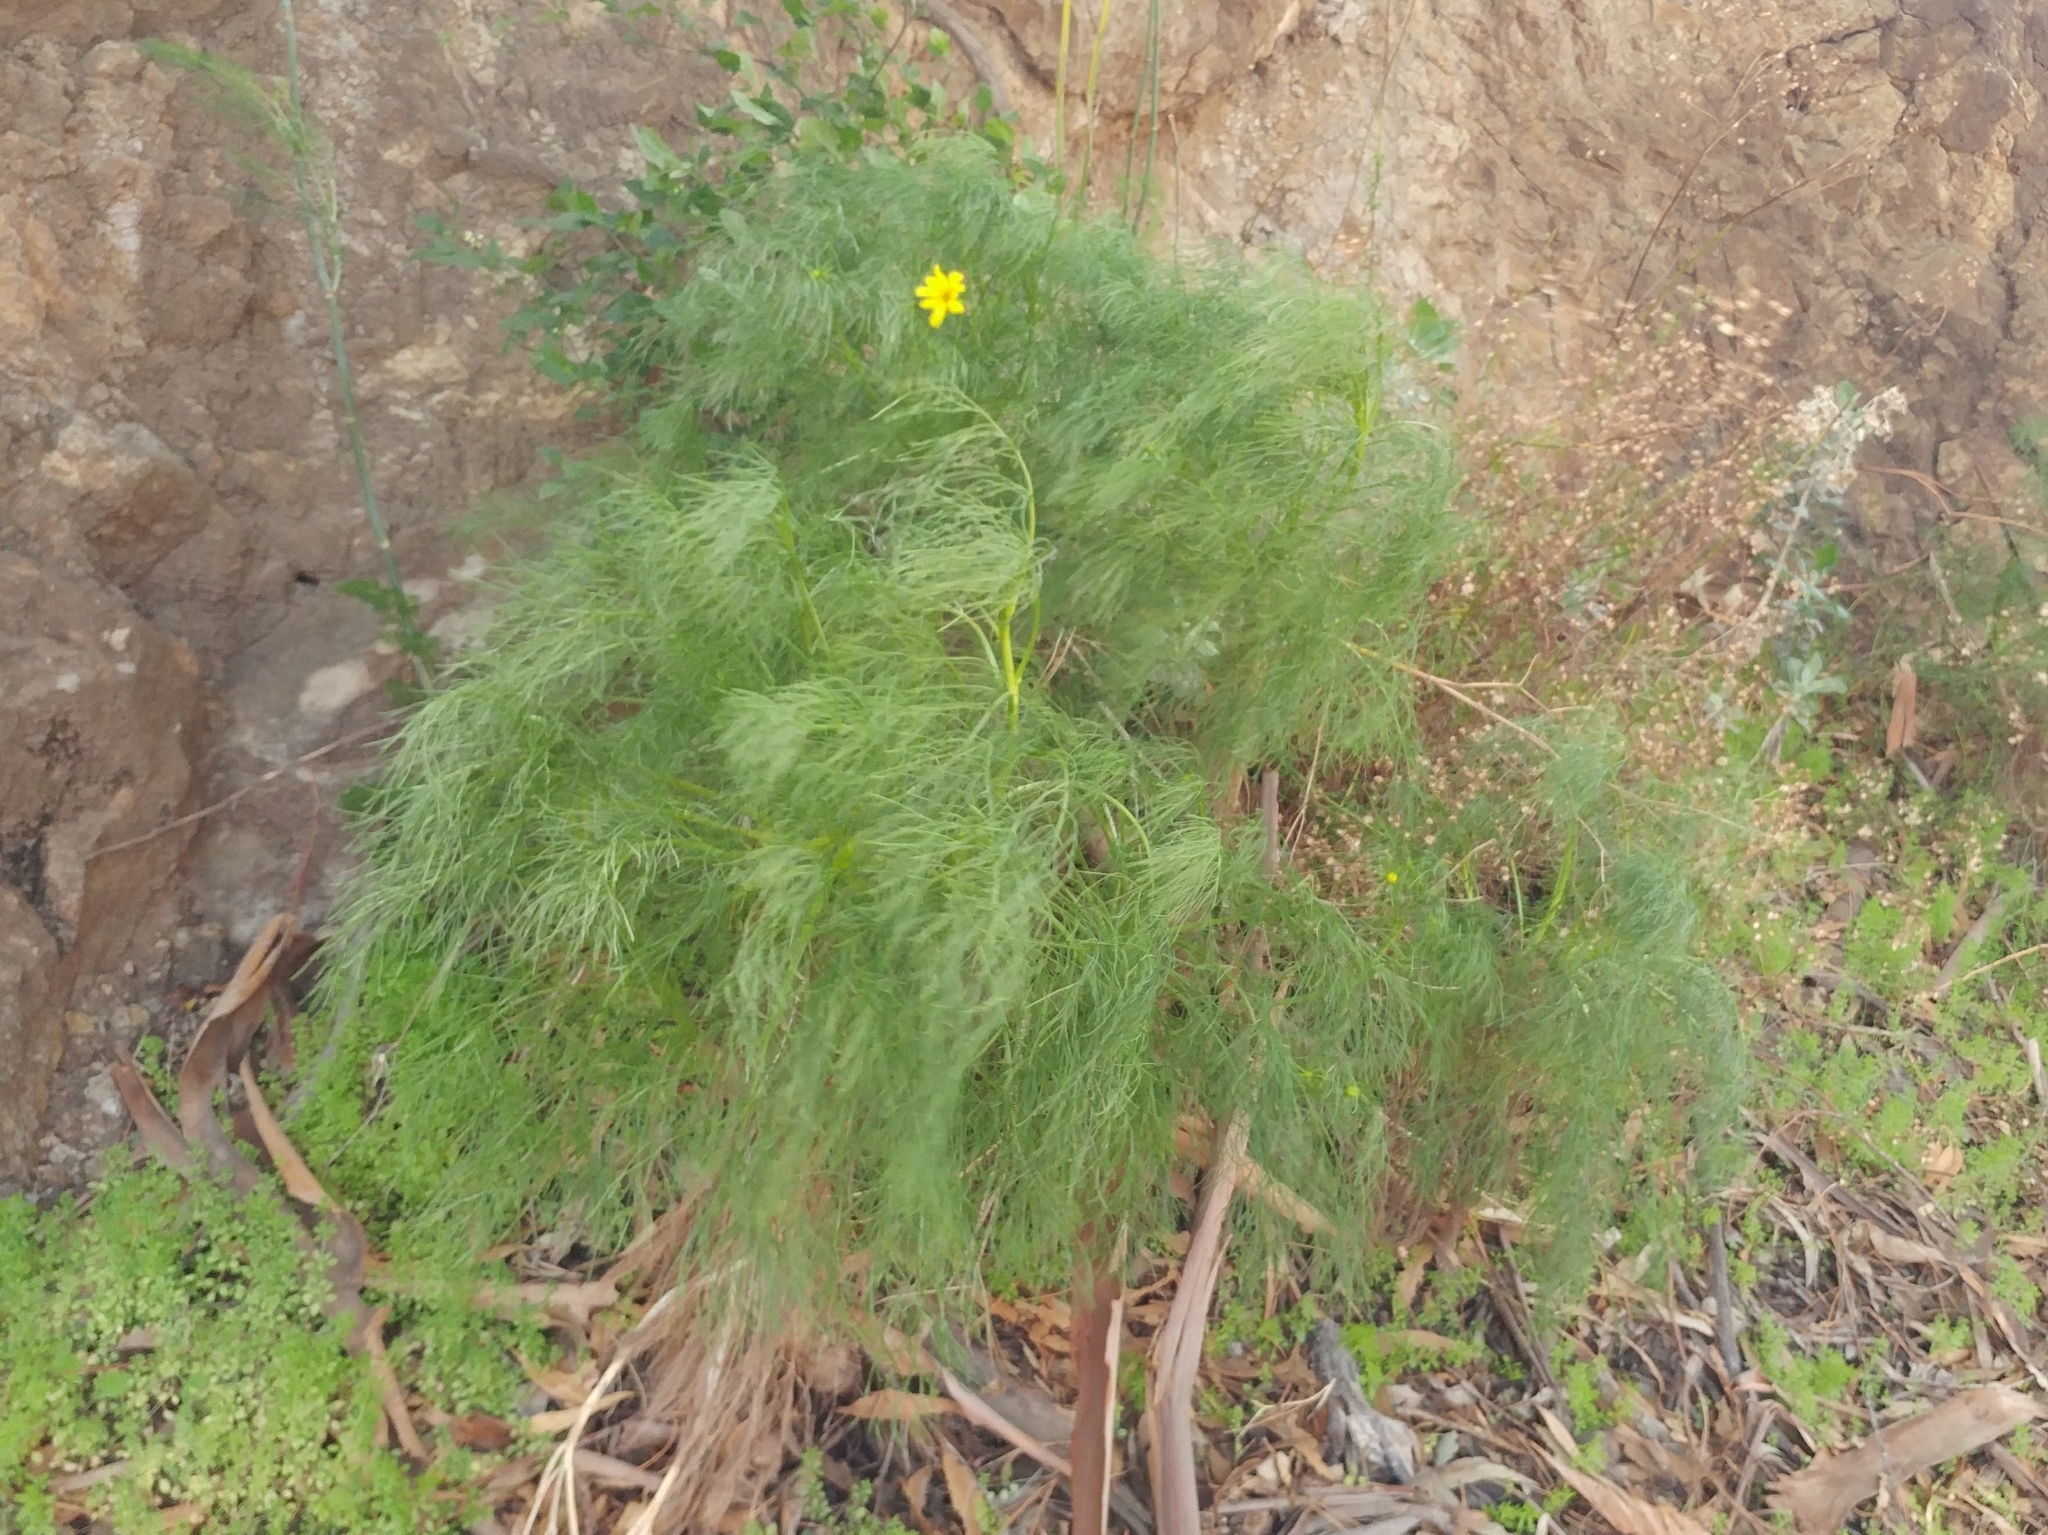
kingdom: Plantae
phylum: Tracheophyta
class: Magnoliopsida
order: Asterales
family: Asteraceae
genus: Coreopsis
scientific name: Coreopsis gigantea
